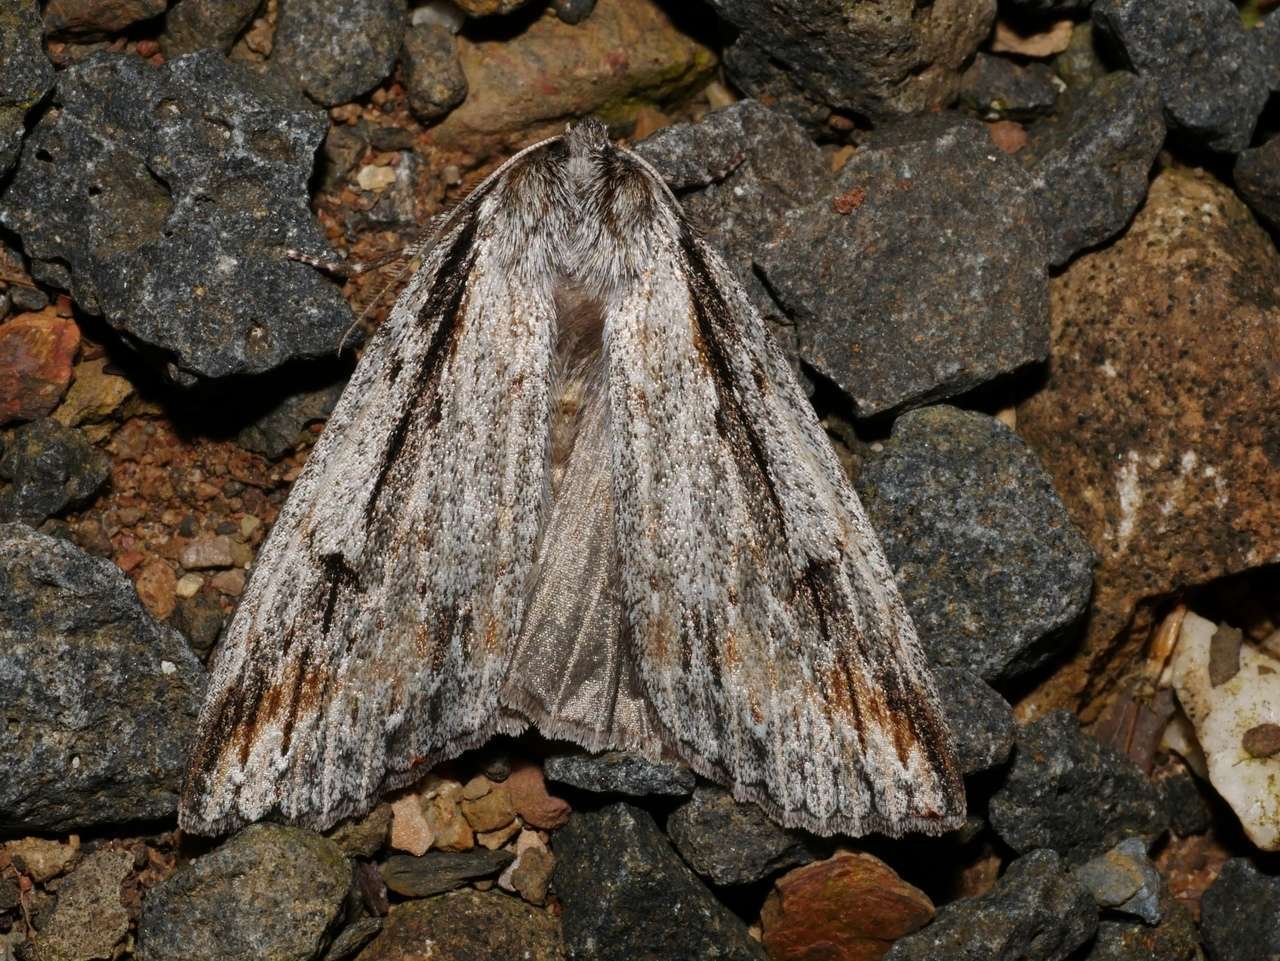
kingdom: Animalia
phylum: Arthropoda
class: Insecta
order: Lepidoptera
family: Geometridae
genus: Chlenias
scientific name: Chlenias banksiaria
